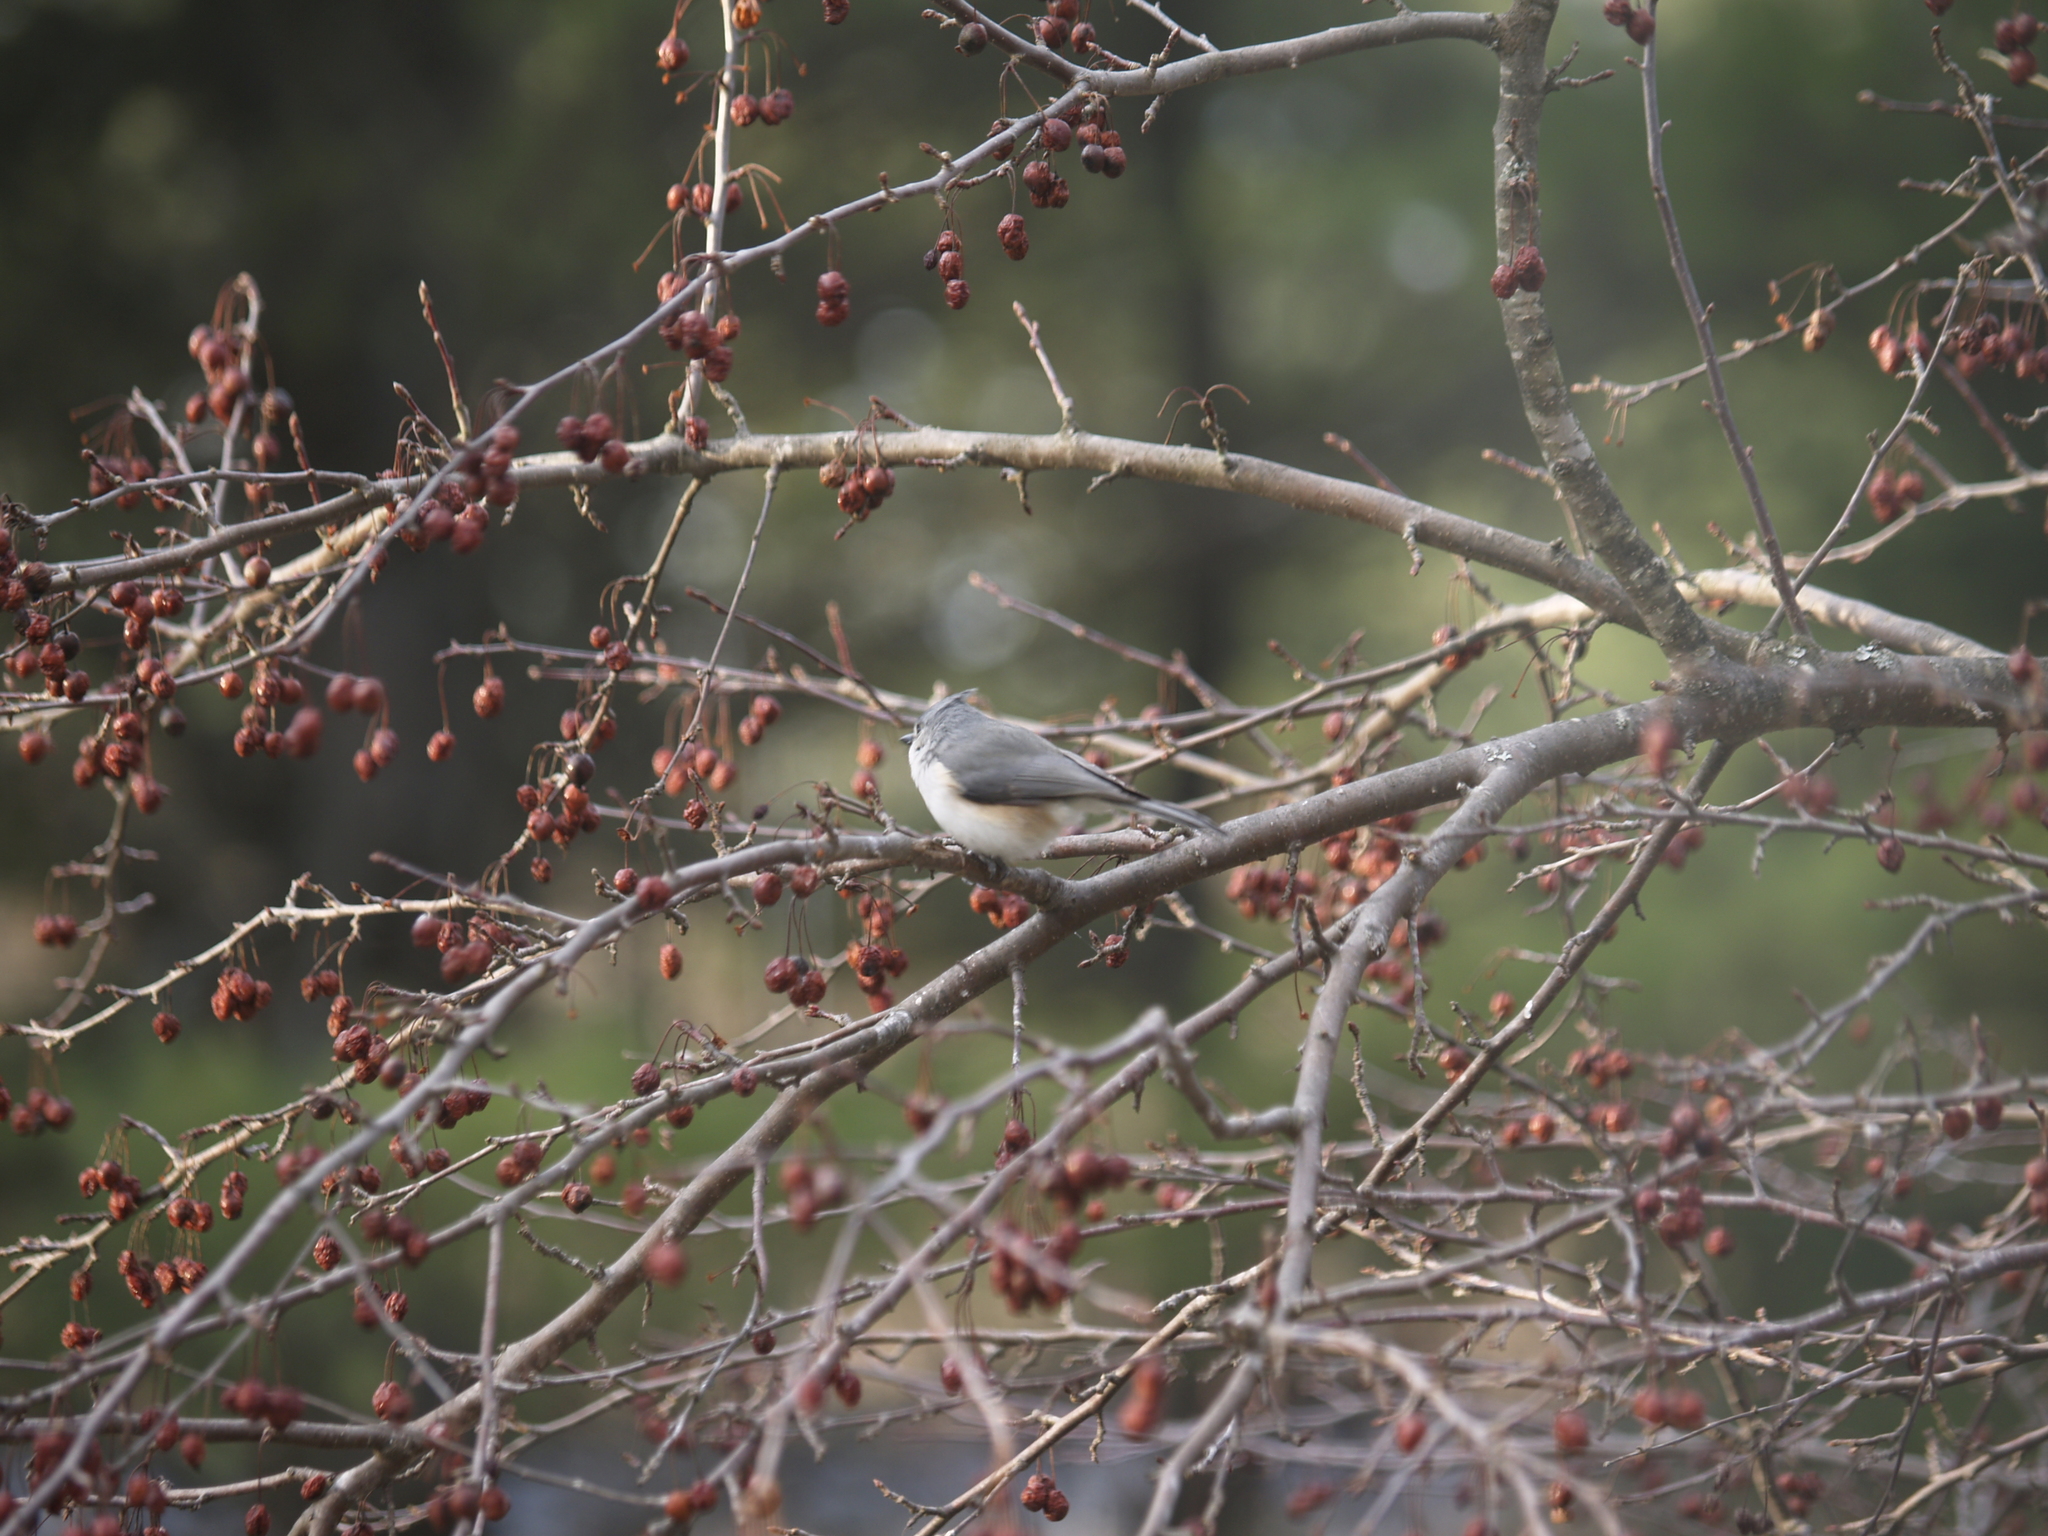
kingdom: Animalia
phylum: Chordata
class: Aves
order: Passeriformes
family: Paridae
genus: Baeolophus
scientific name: Baeolophus bicolor
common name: Tufted titmouse
